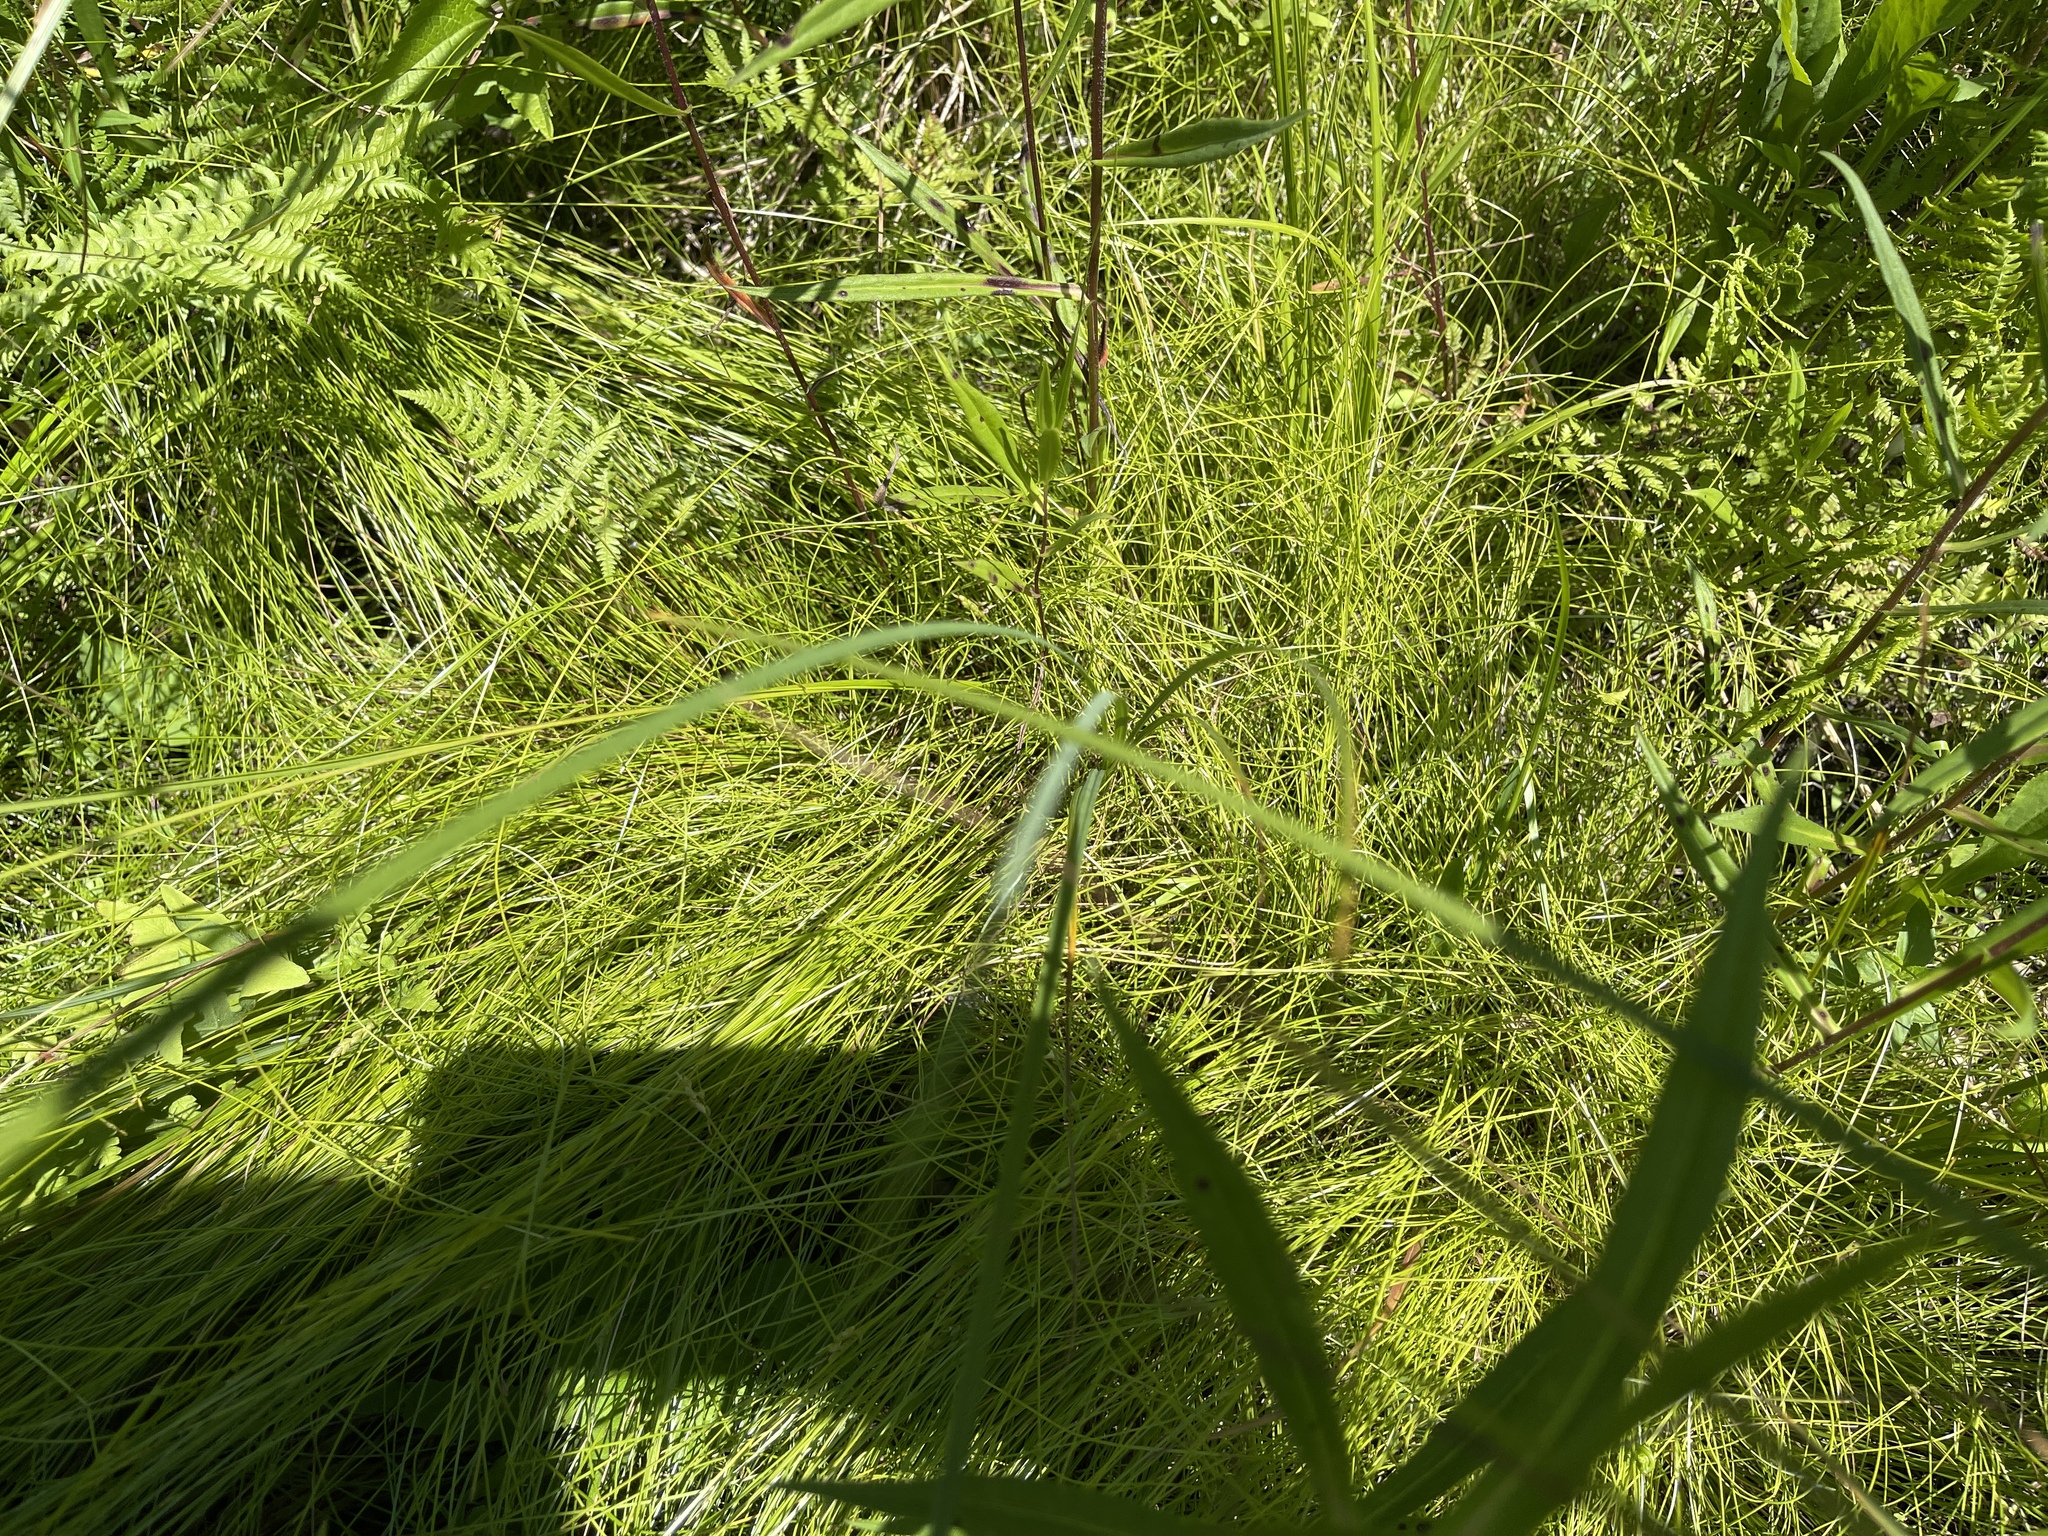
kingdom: Plantae
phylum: Tracheophyta
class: Liliopsida
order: Poales
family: Cyperaceae
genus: Carex
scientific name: Carex leptalea
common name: Bristly-stalked sedge
